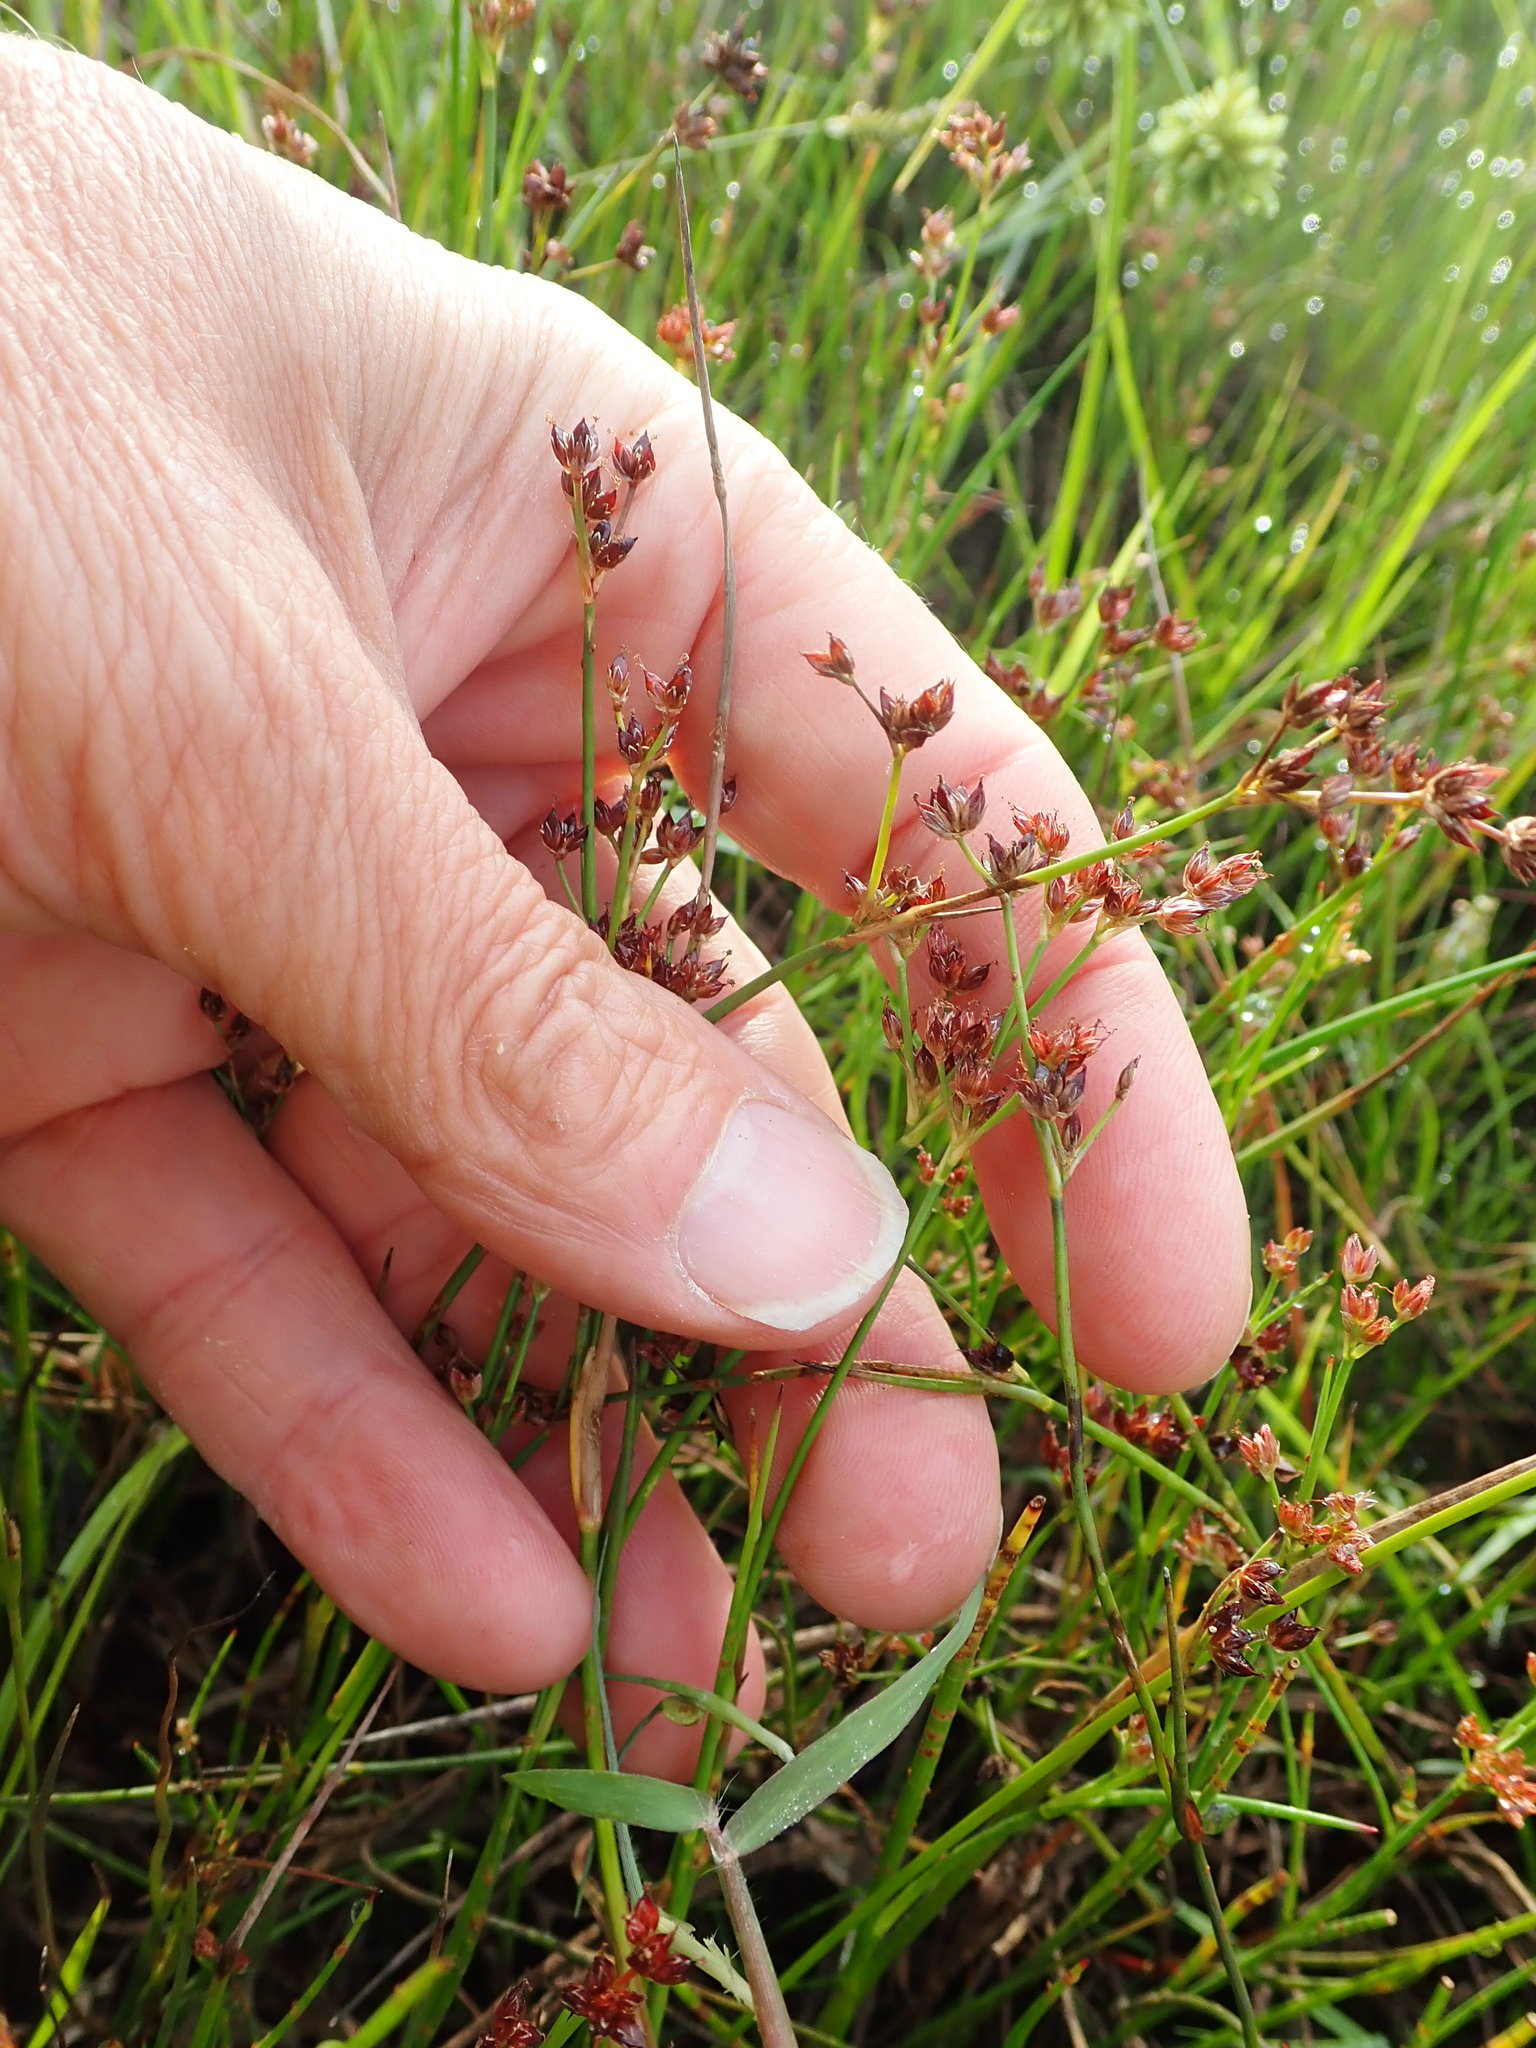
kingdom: Plantae
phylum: Tracheophyta
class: Liliopsida
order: Poales
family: Juncaceae
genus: Juncus
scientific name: Juncus articulatus
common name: Jointed rush
